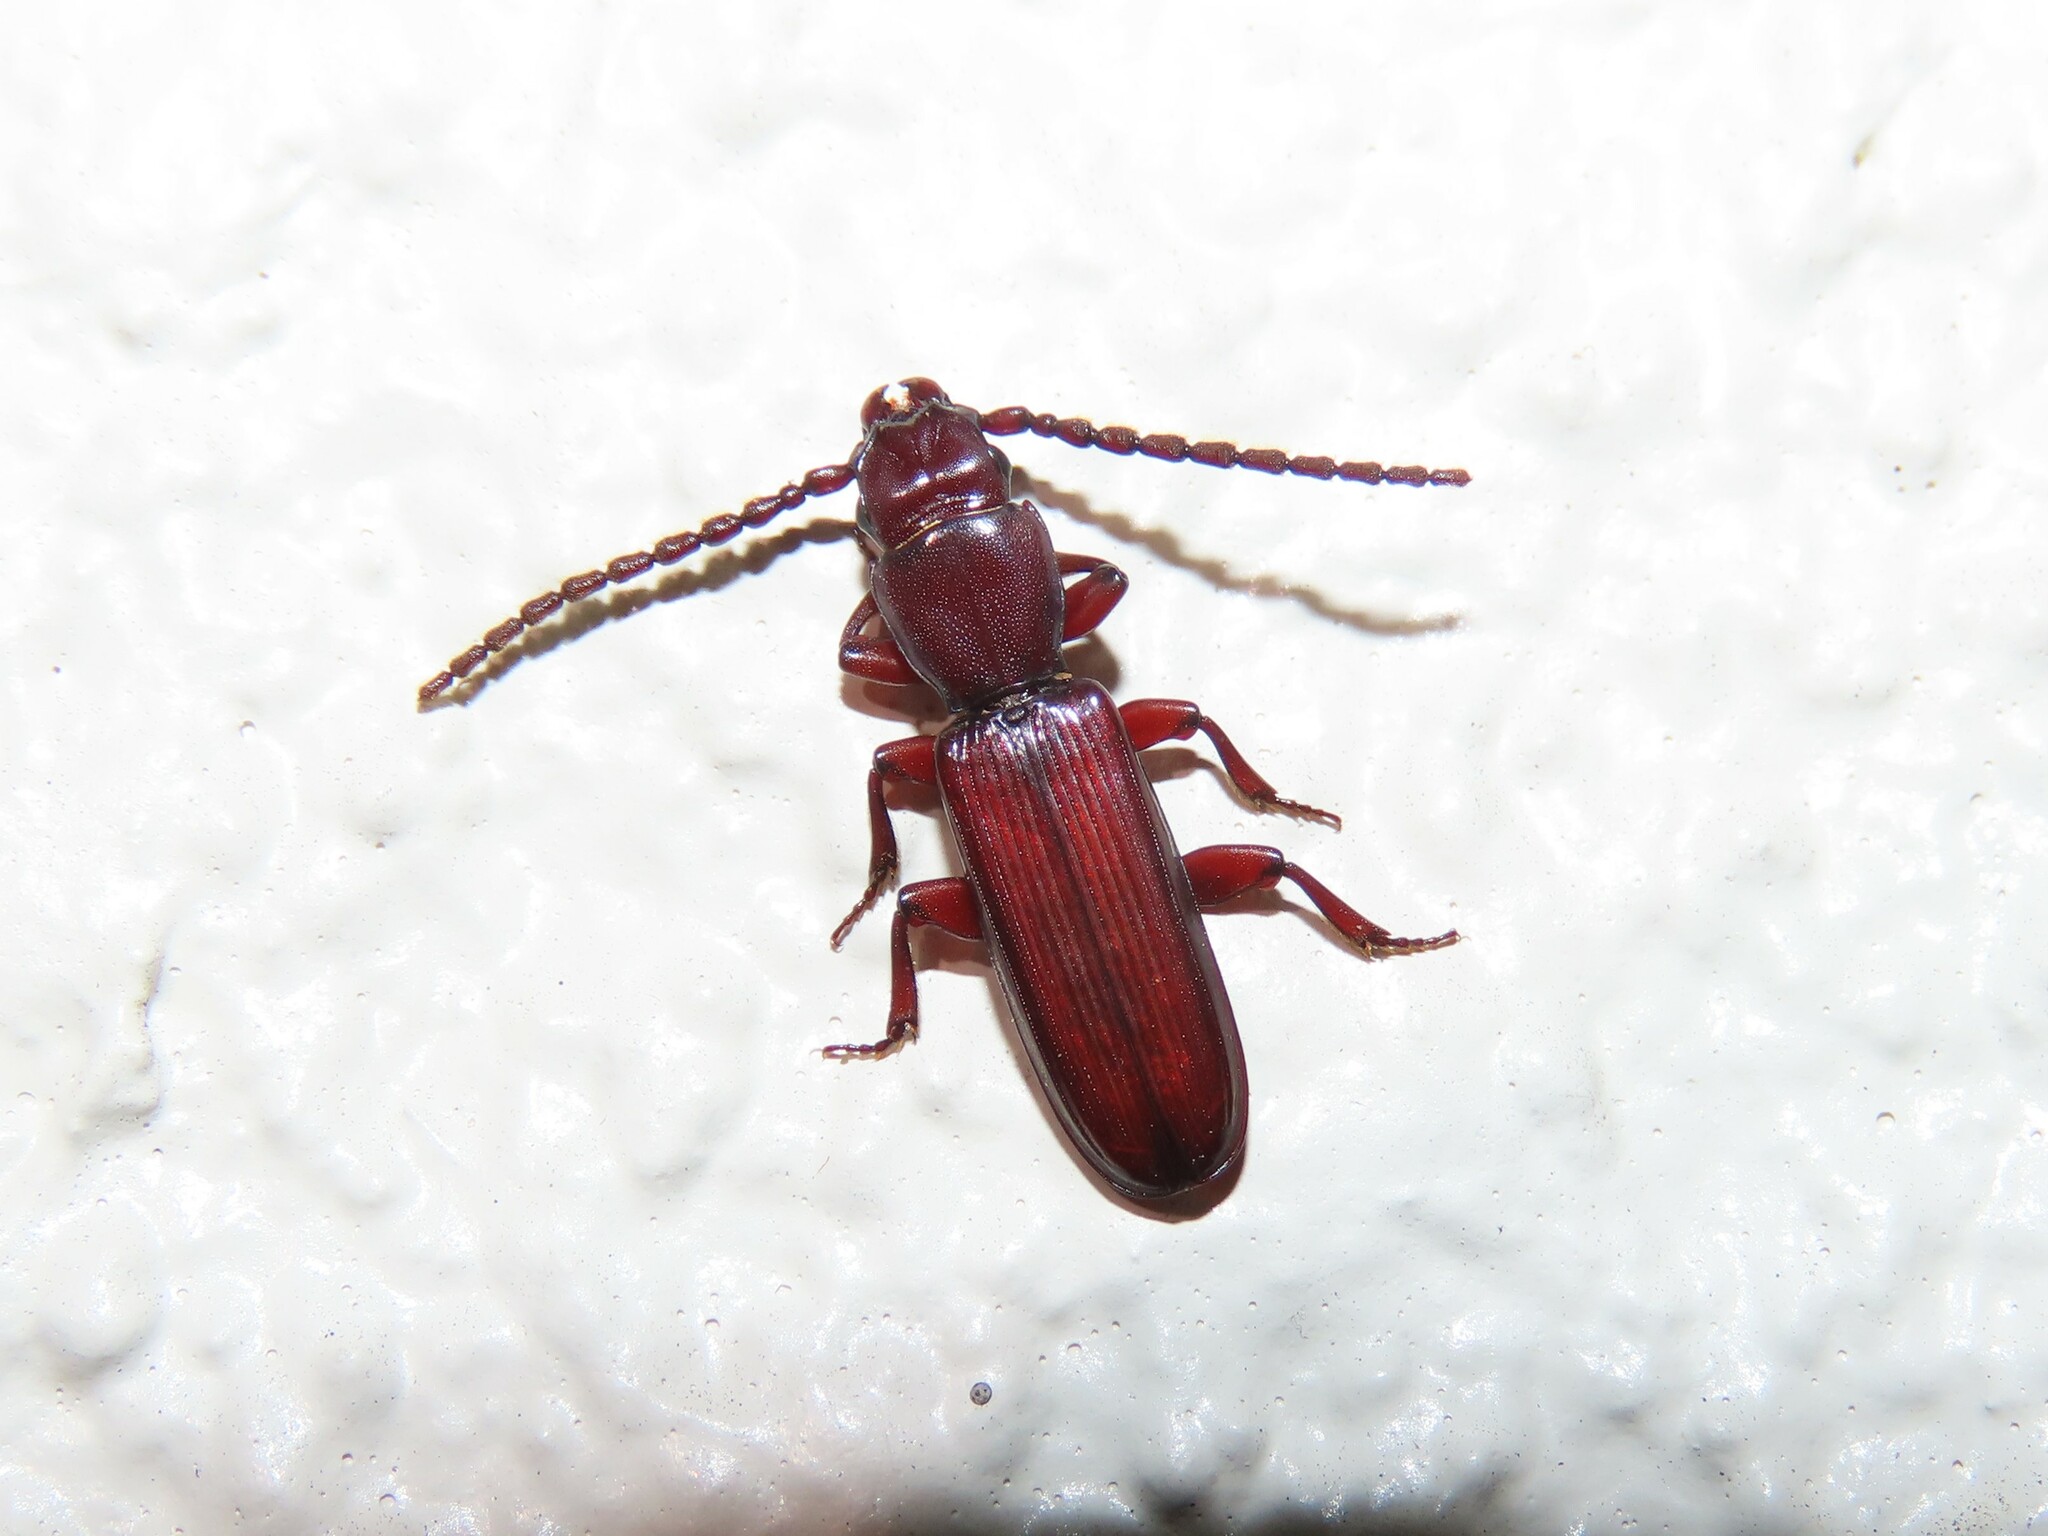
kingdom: Animalia
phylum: Arthropoda
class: Insecta
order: Coleoptera
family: Passandridae
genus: Catogenus
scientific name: Catogenus rufus
